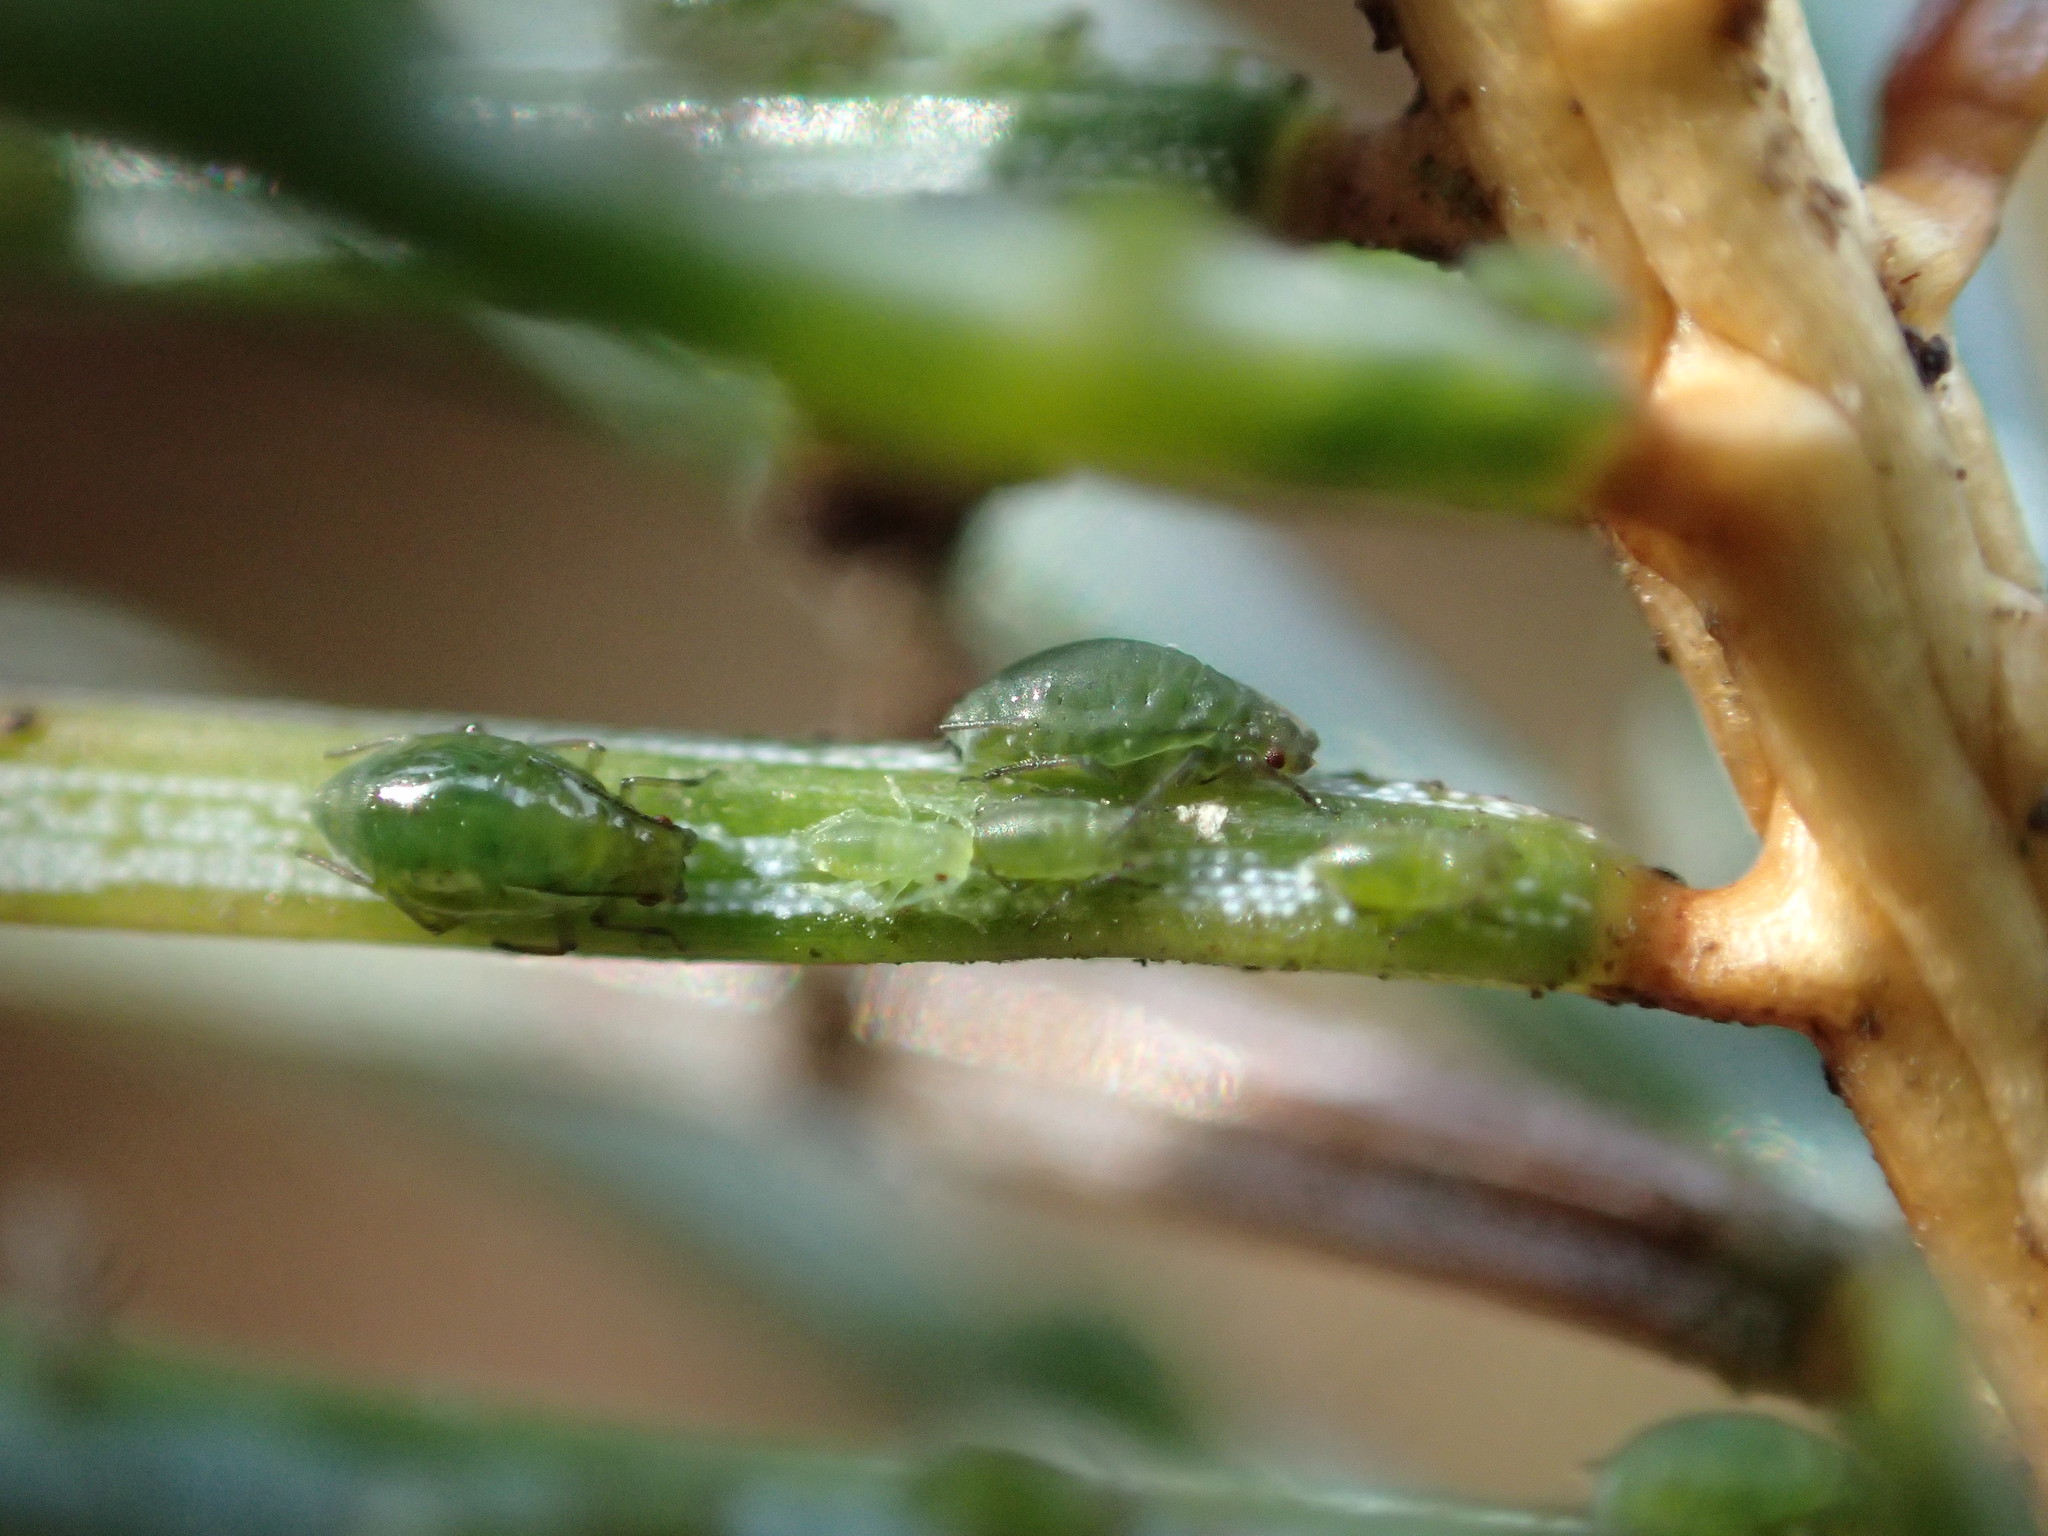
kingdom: Animalia
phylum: Arthropoda
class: Insecta
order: Hemiptera
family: Aphididae
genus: Elatobium
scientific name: Elatobium abietinum
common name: Spruce aphid
